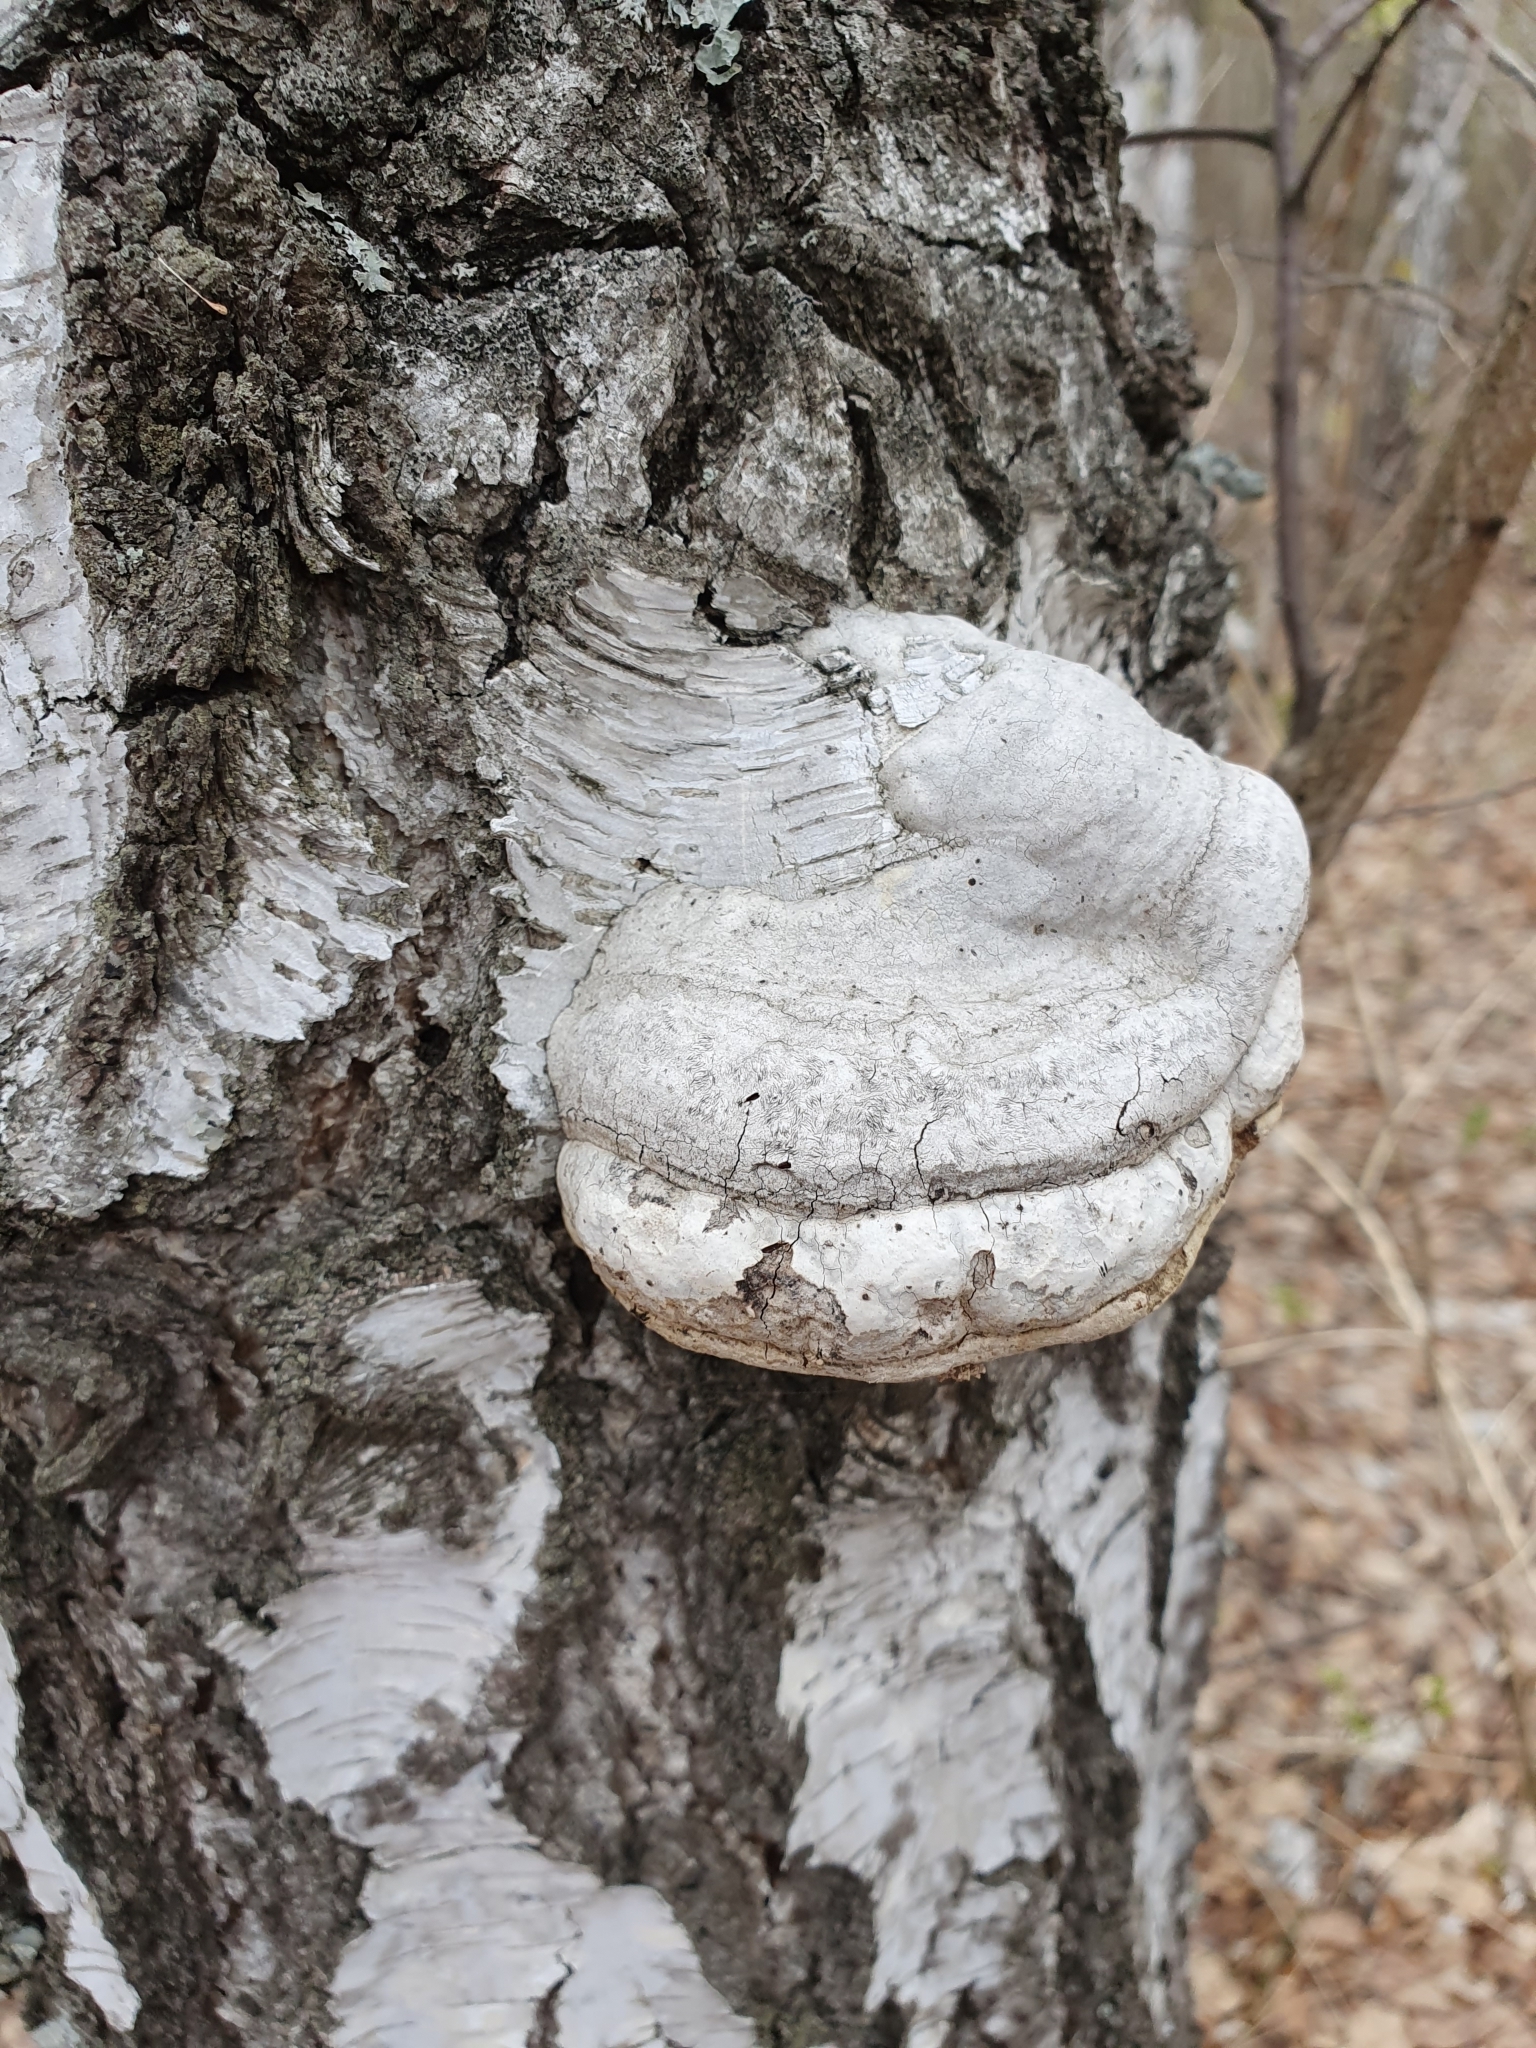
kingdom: Fungi
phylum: Basidiomycota
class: Agaricomycetes
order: Polyporales
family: Polyporaceae
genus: Fomes
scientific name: Fomes fomentarius
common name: Hoof fungus
